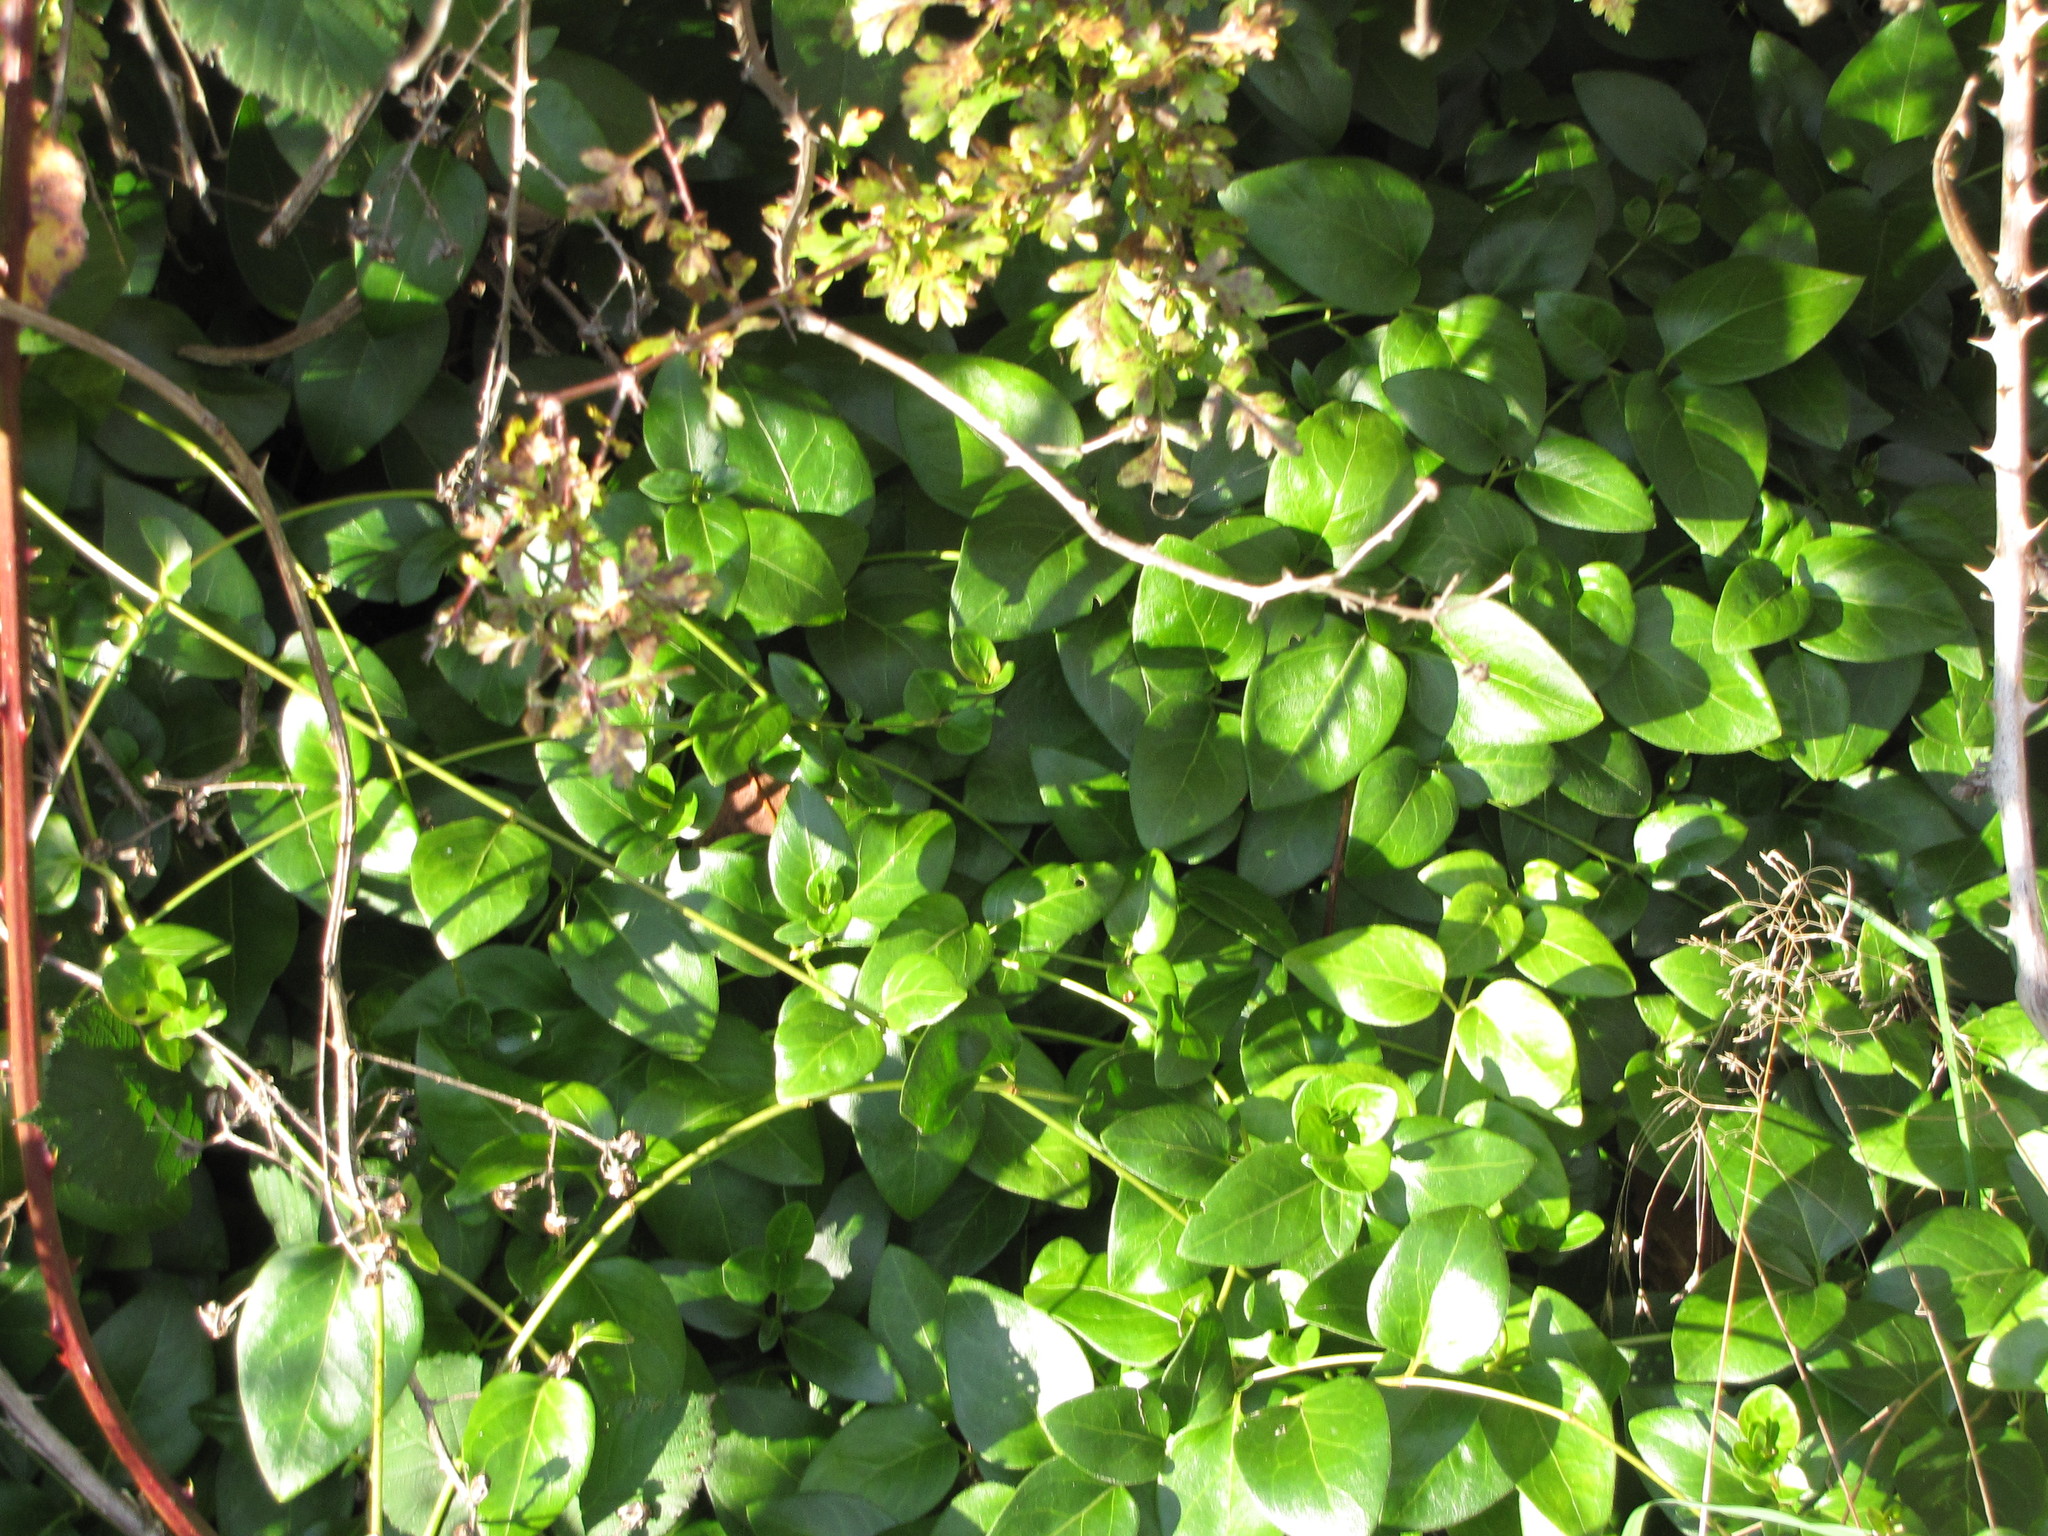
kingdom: Plantae
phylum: Tracheophyta
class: Magnoliopsida
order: Gentianales
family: Apocynaceae
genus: Vinca
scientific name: Vinca major
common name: Greater periwinkle
